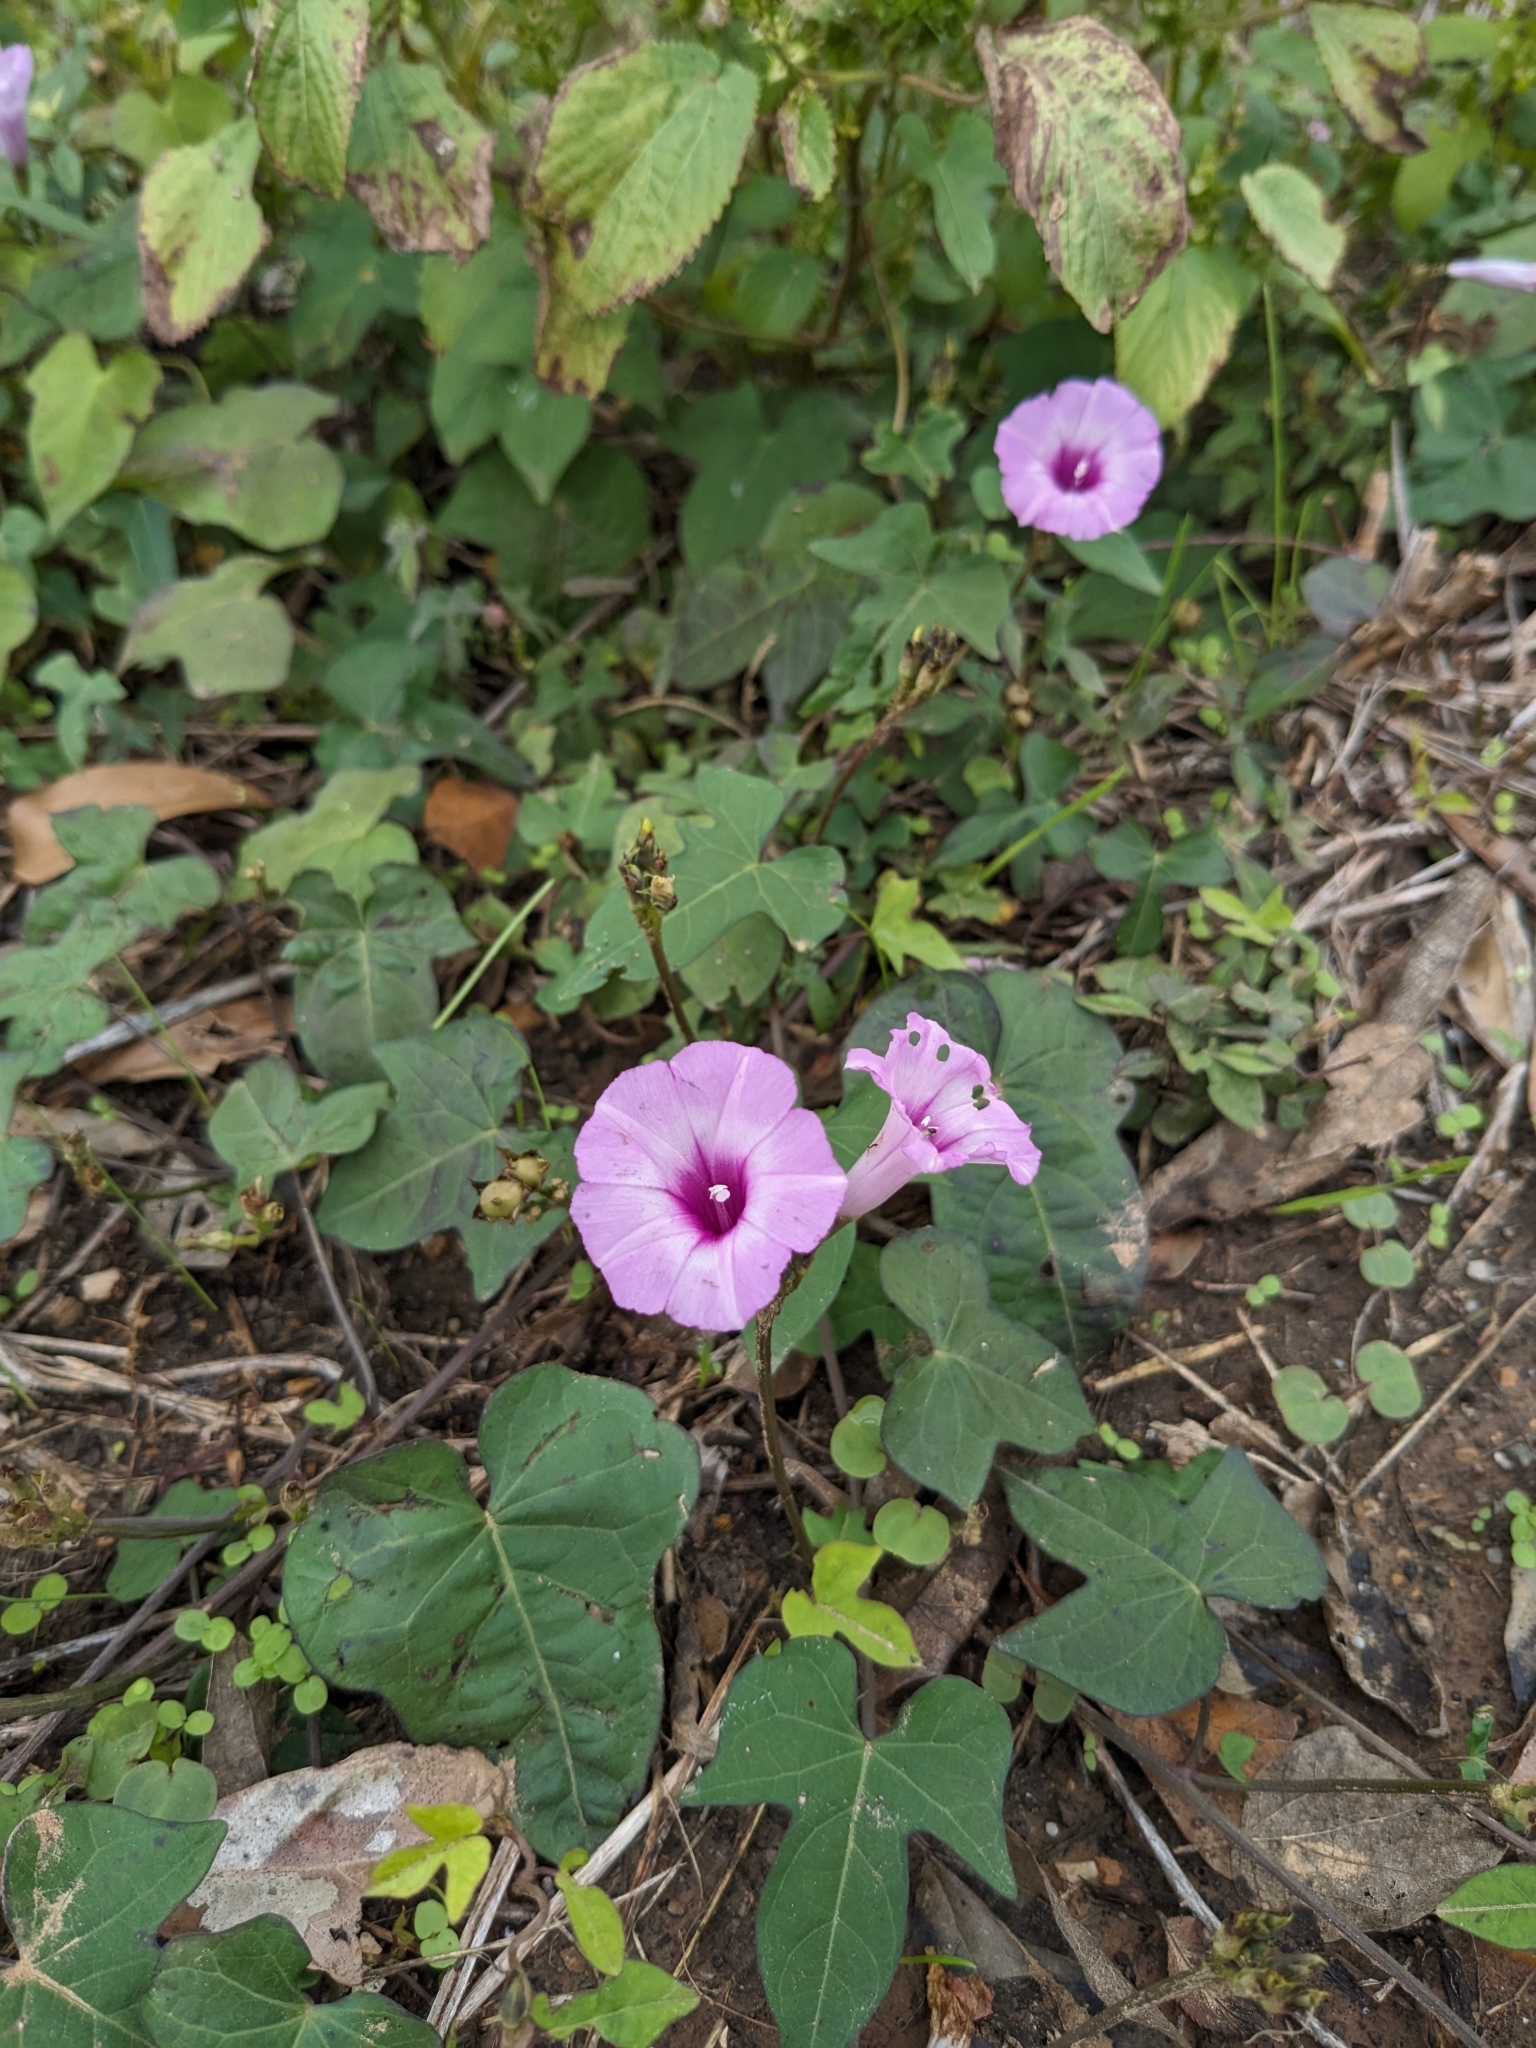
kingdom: Plantae
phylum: Tracheophyta
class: Magnoliopsida
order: Solanales
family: Convolvulaceae
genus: Ipomoea
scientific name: Ipomoea cordatotriloba
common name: Cotton morning glory
